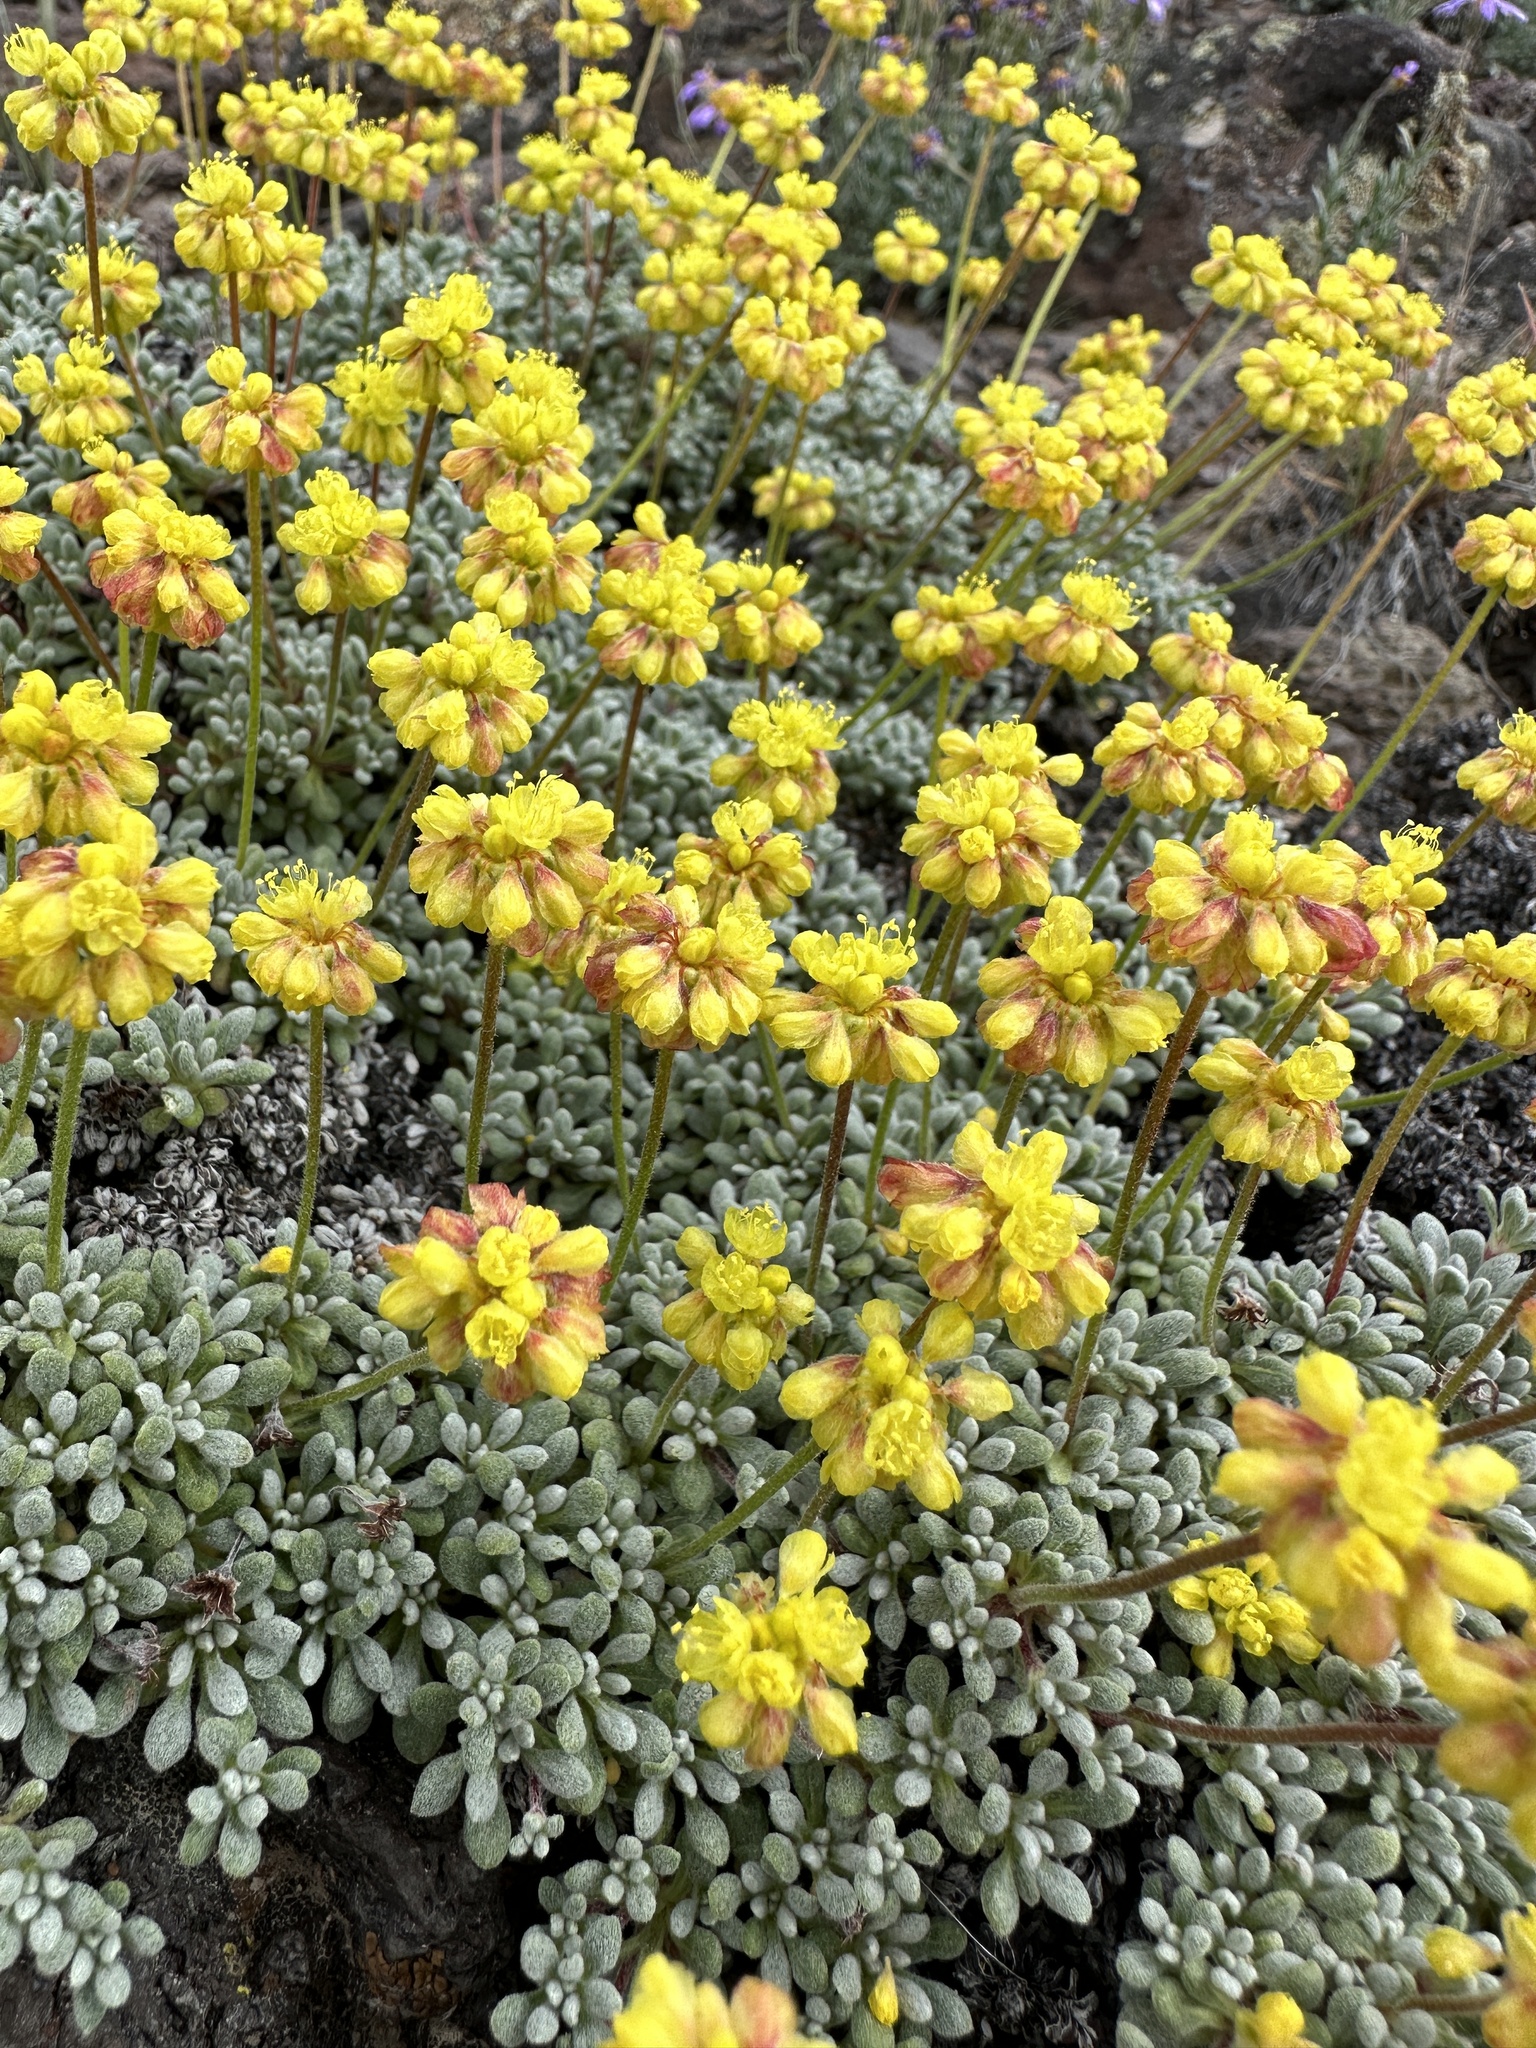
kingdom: Plantae
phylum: Tracheophyta
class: Magnoliopsida
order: Caryophyllales
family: Polygonaceae
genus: Eriogonum
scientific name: Eriogonum caespitosum
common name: Matted wild buckwheat
